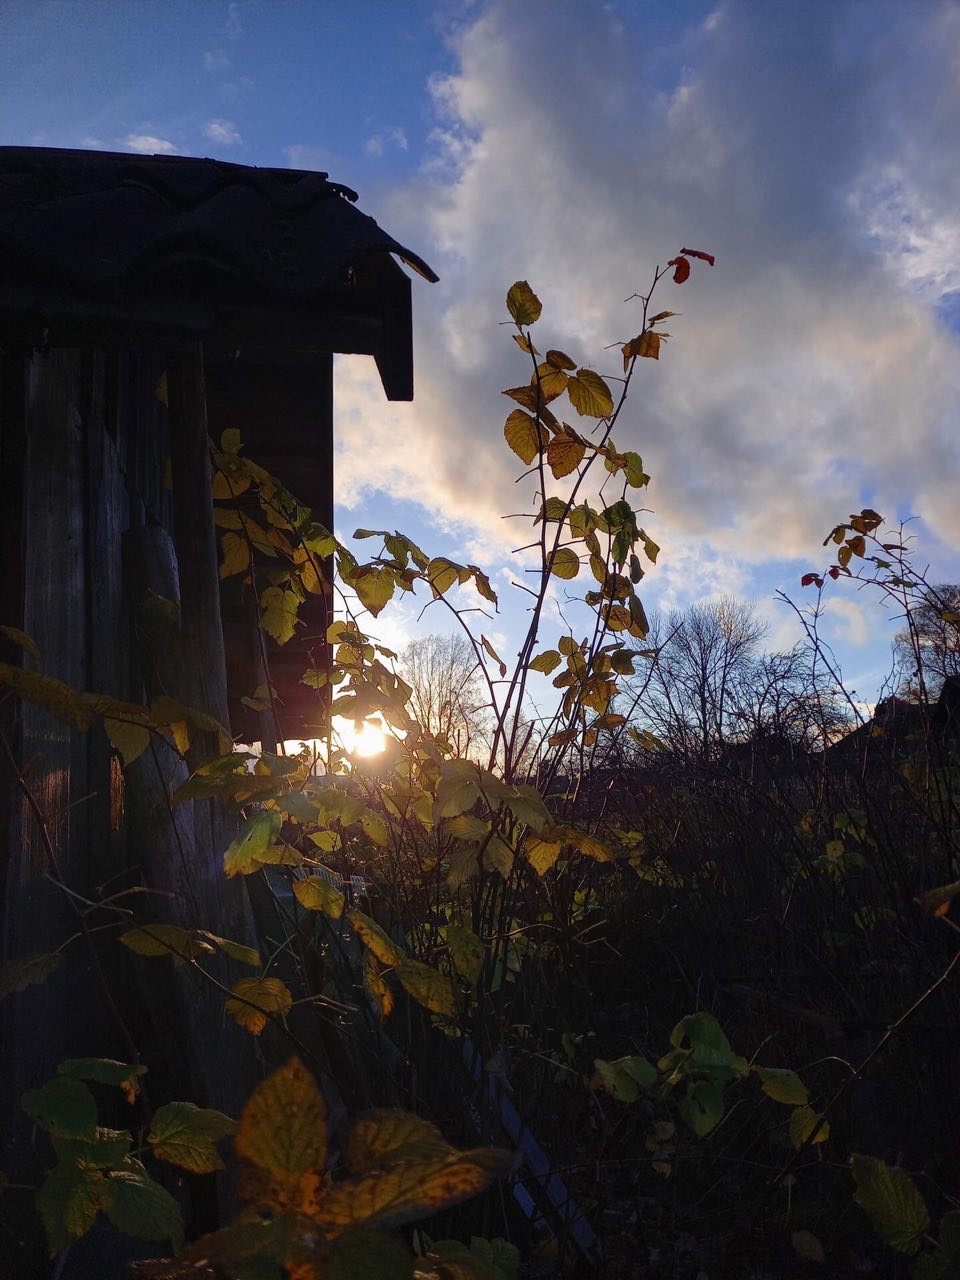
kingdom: Plantae
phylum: Tracheophyta
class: Magnoliopsida
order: Rosales
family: Rosaceae
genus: Rubus
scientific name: Rubus idaeus
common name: Raspberry
